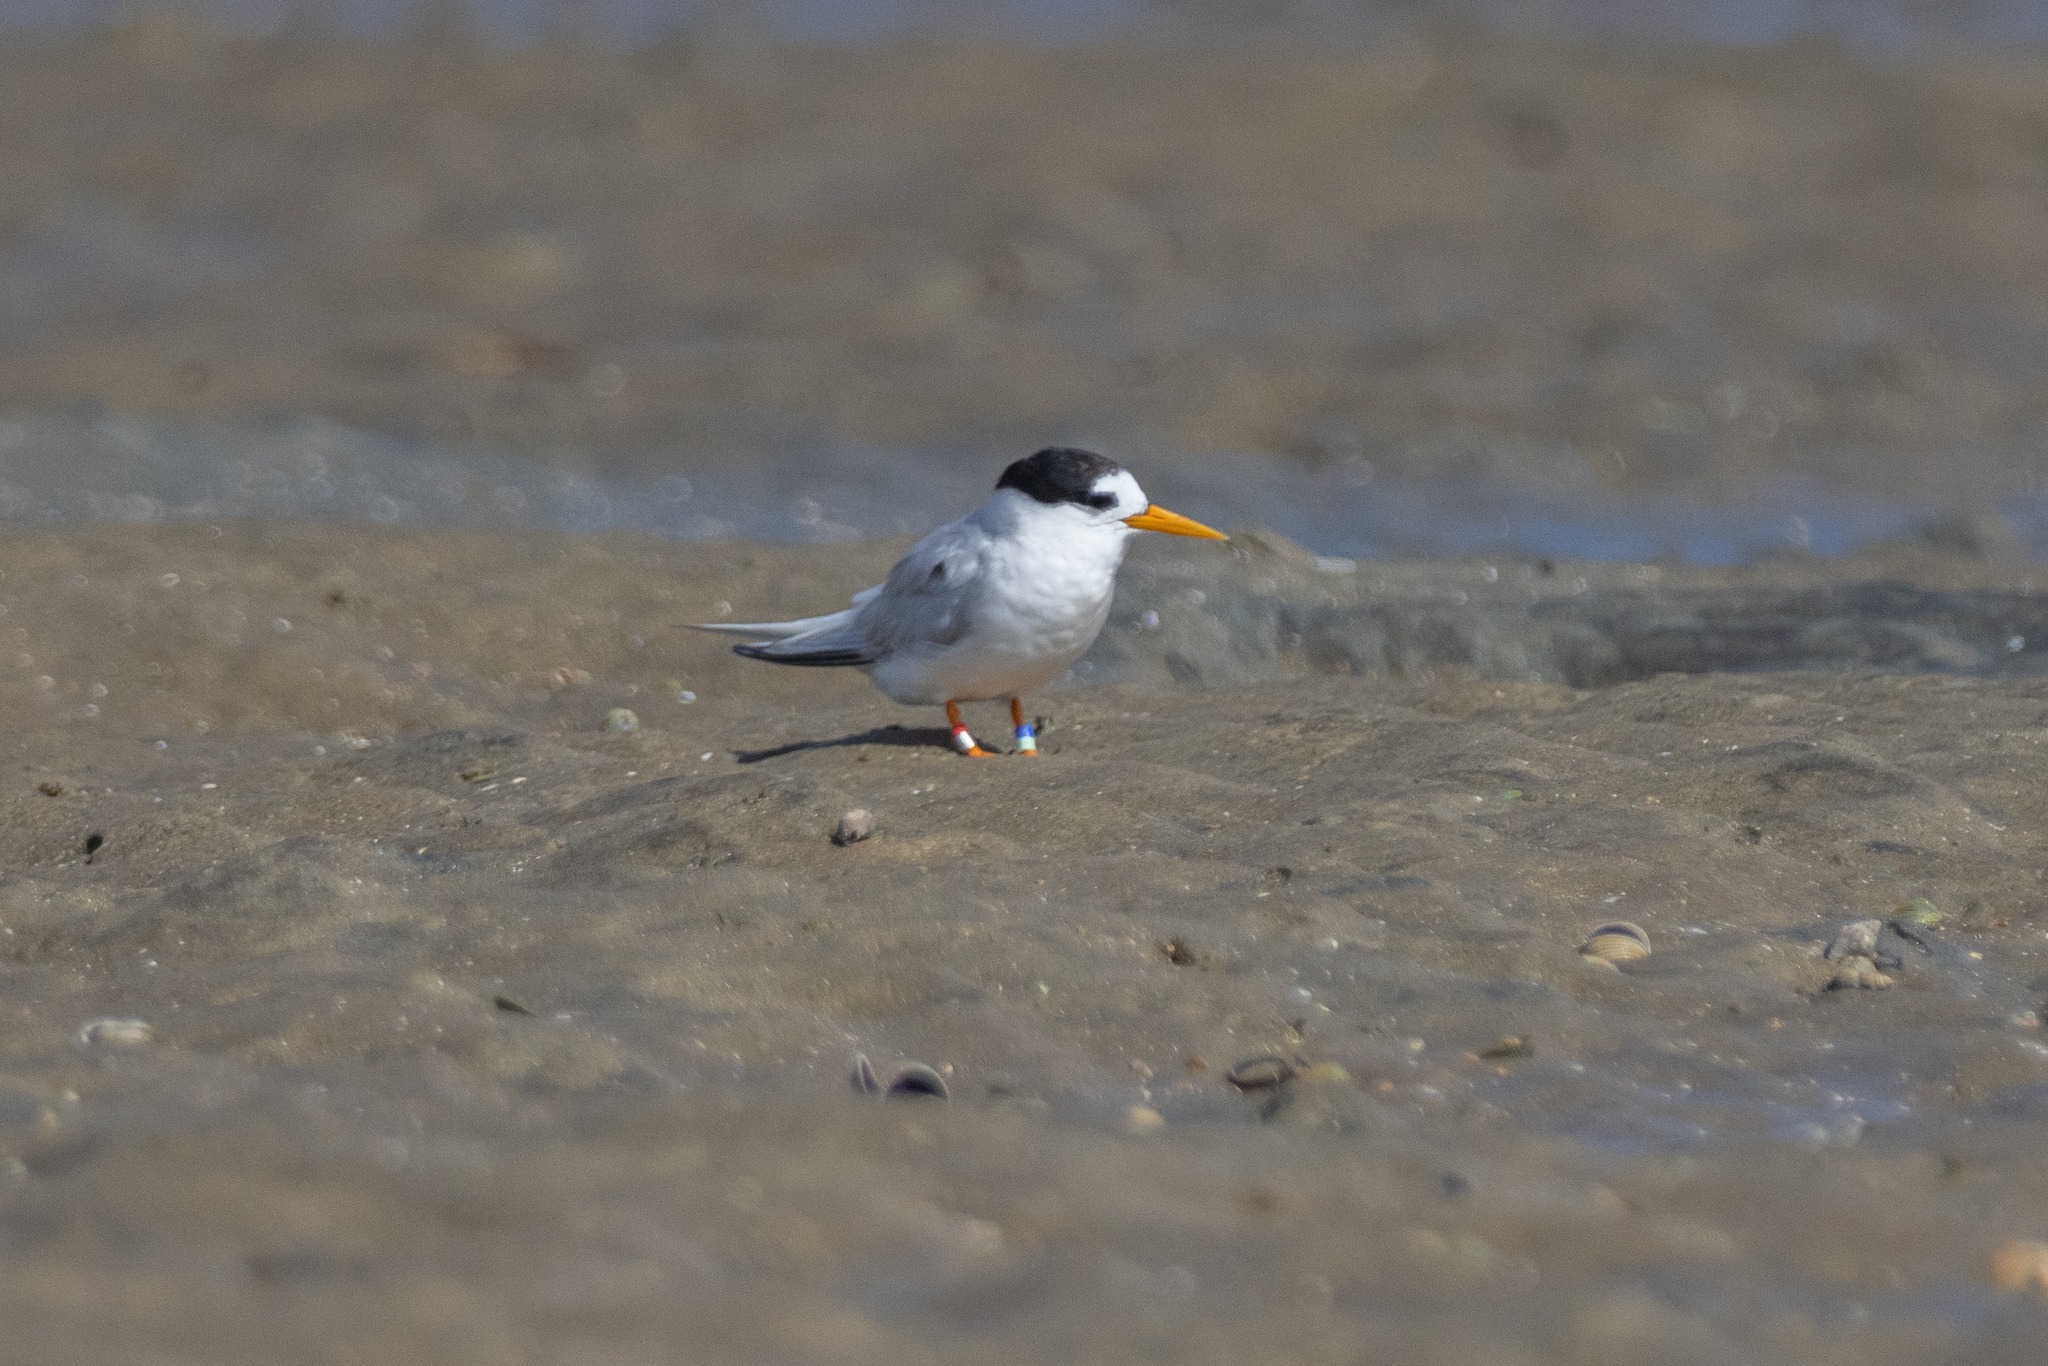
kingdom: Animalia
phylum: Chordata
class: Aves
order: Charadriiformes
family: Laridae
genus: Sternula
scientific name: Sternula nereis
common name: Fairy tern
